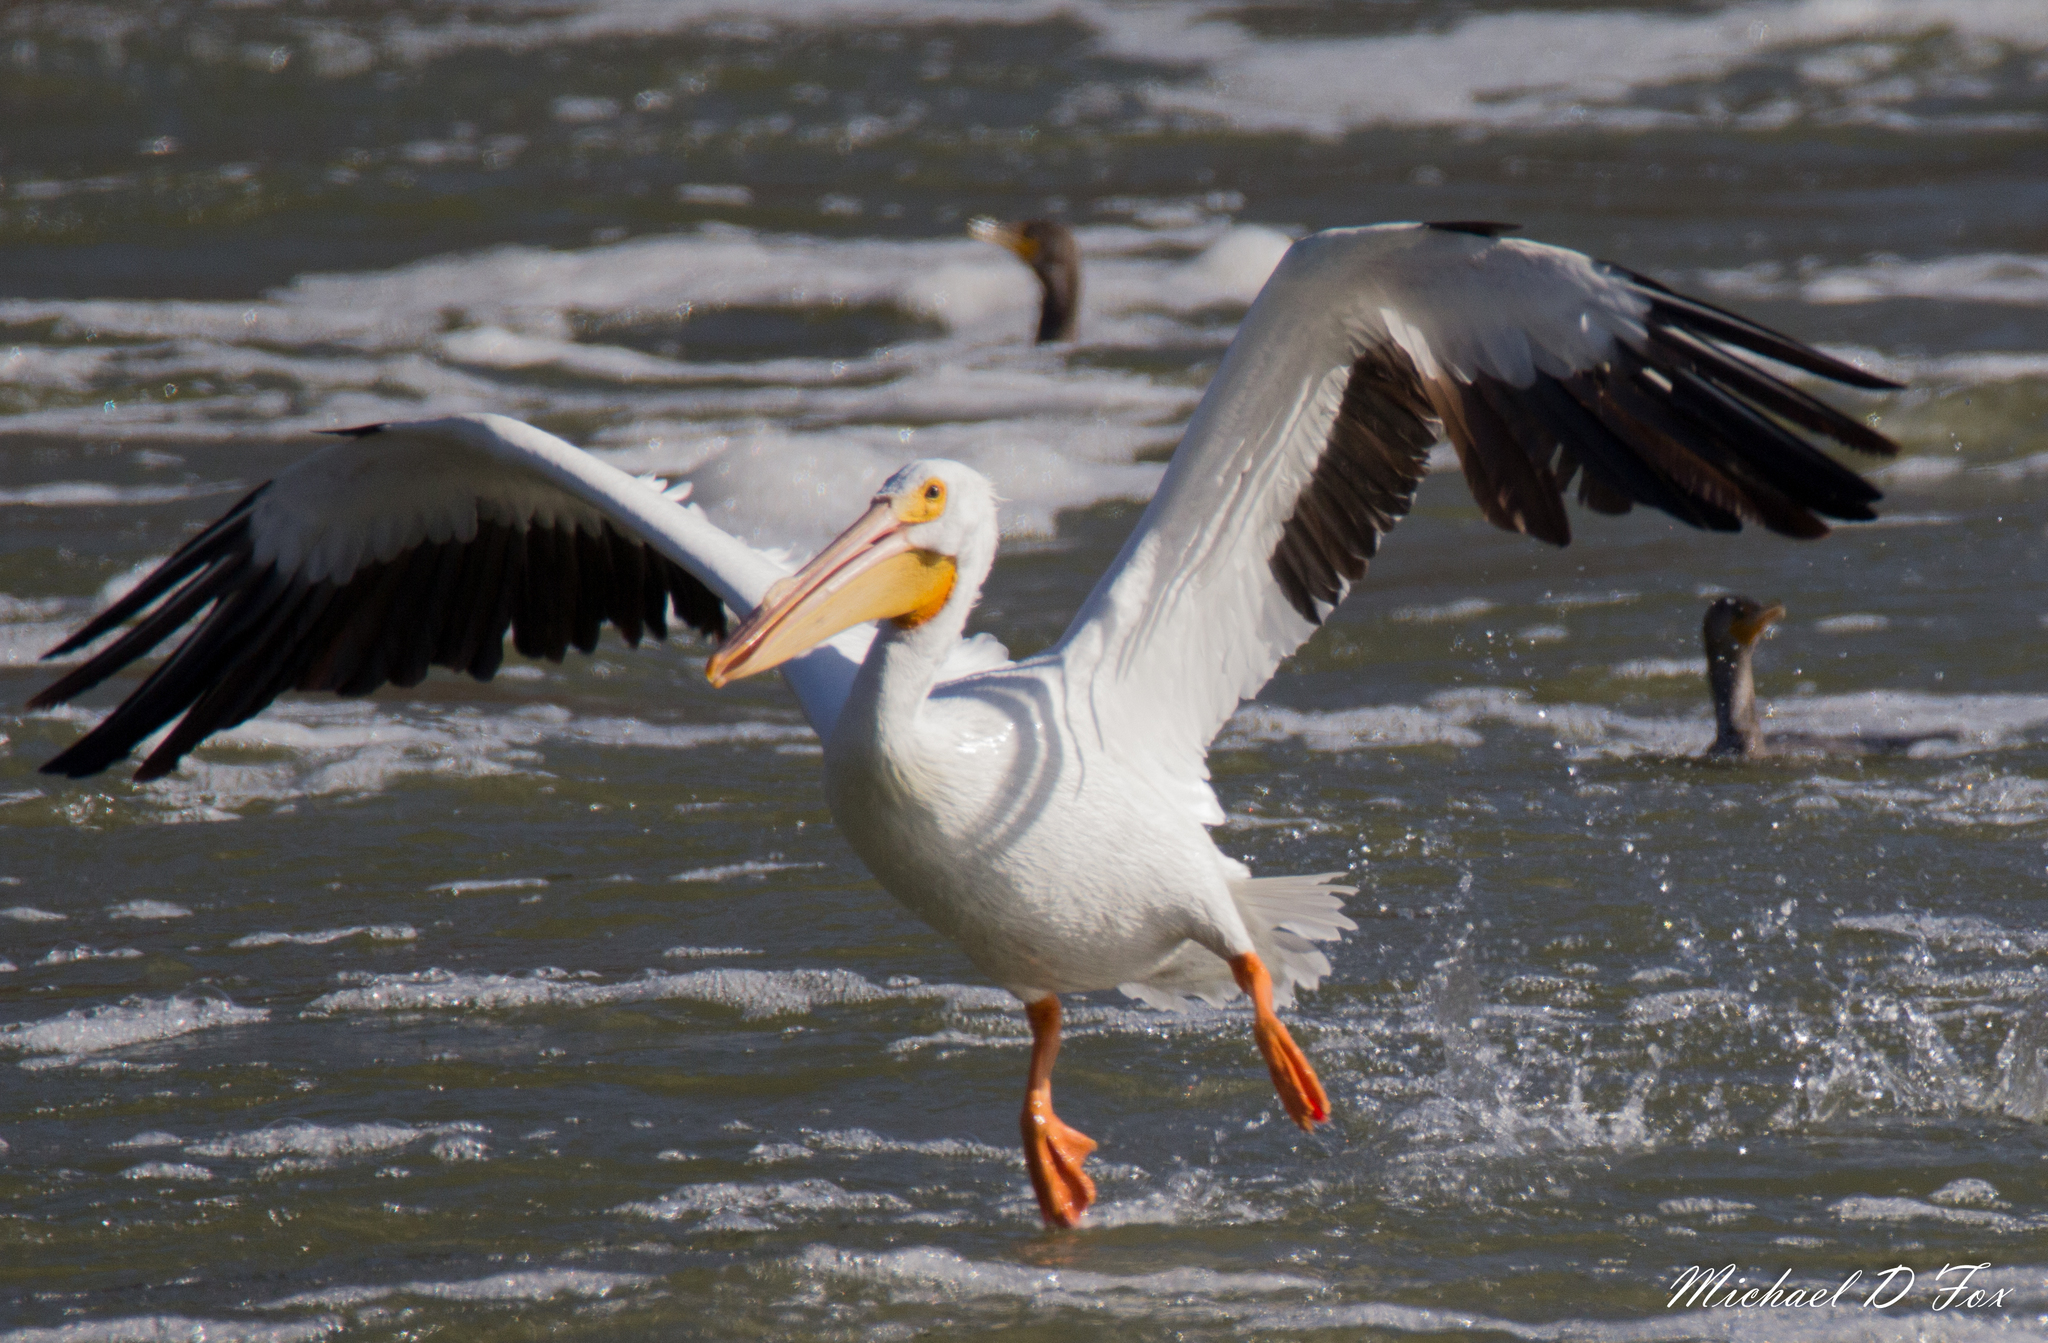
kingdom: Animalia
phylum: Chordata
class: Aves
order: Pelecaniformes
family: Pelecanidae
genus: Pelecanus
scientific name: Pelecanus erythrorhynchos
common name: American white pelican
